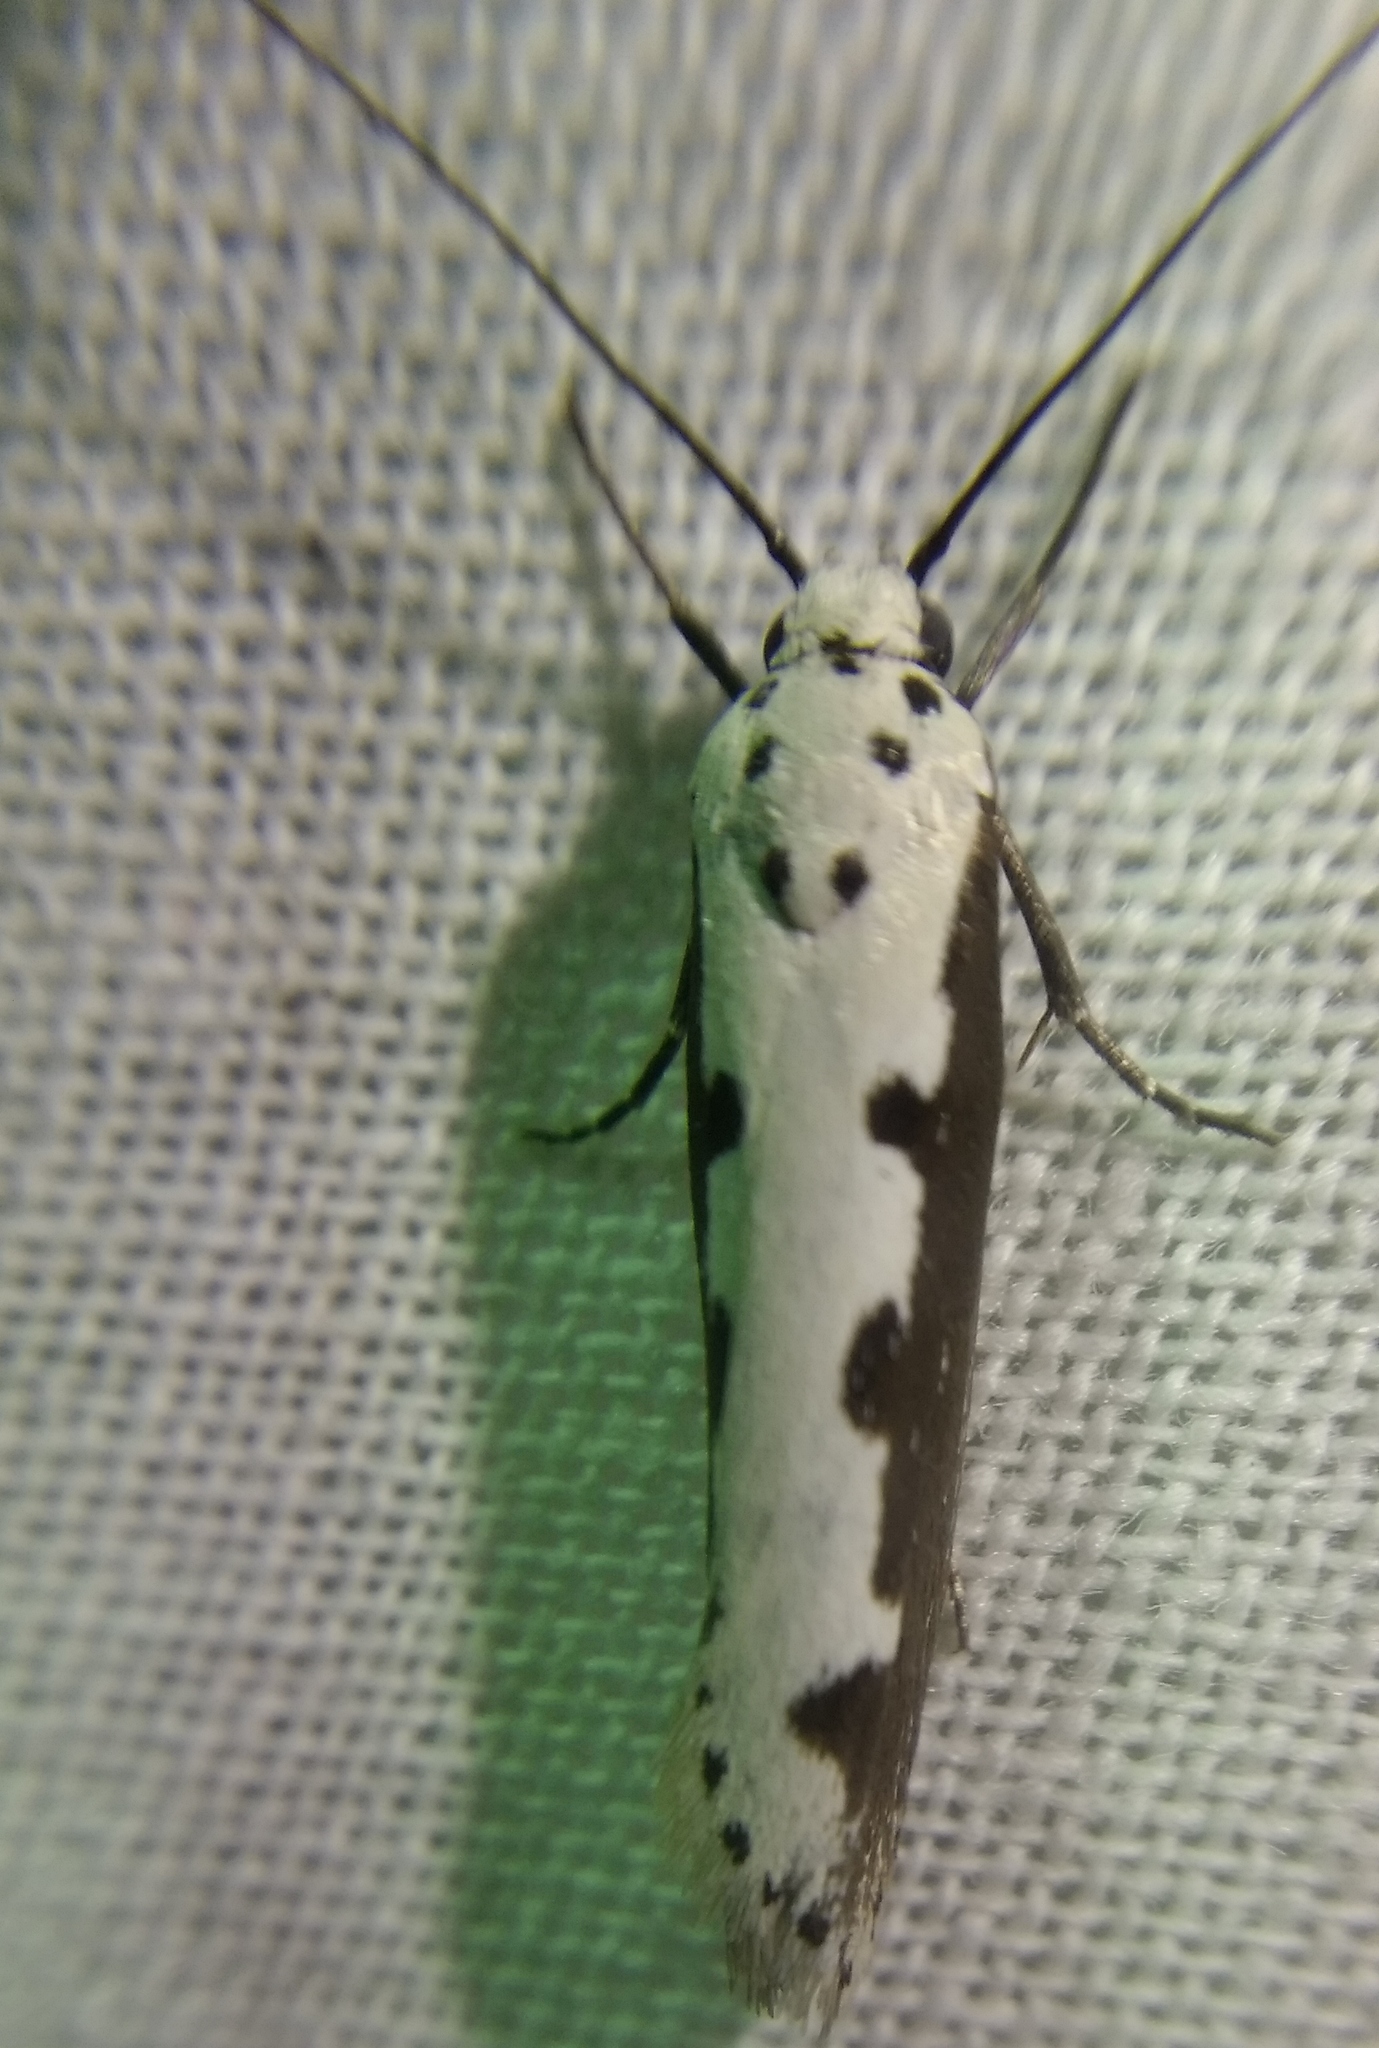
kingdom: Animalia
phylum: Arthropoda
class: Insecta
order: Lepidoptera
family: Ethmiidae
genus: Ethmia
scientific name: Ethmia bipunctella
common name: Bordered ermel
